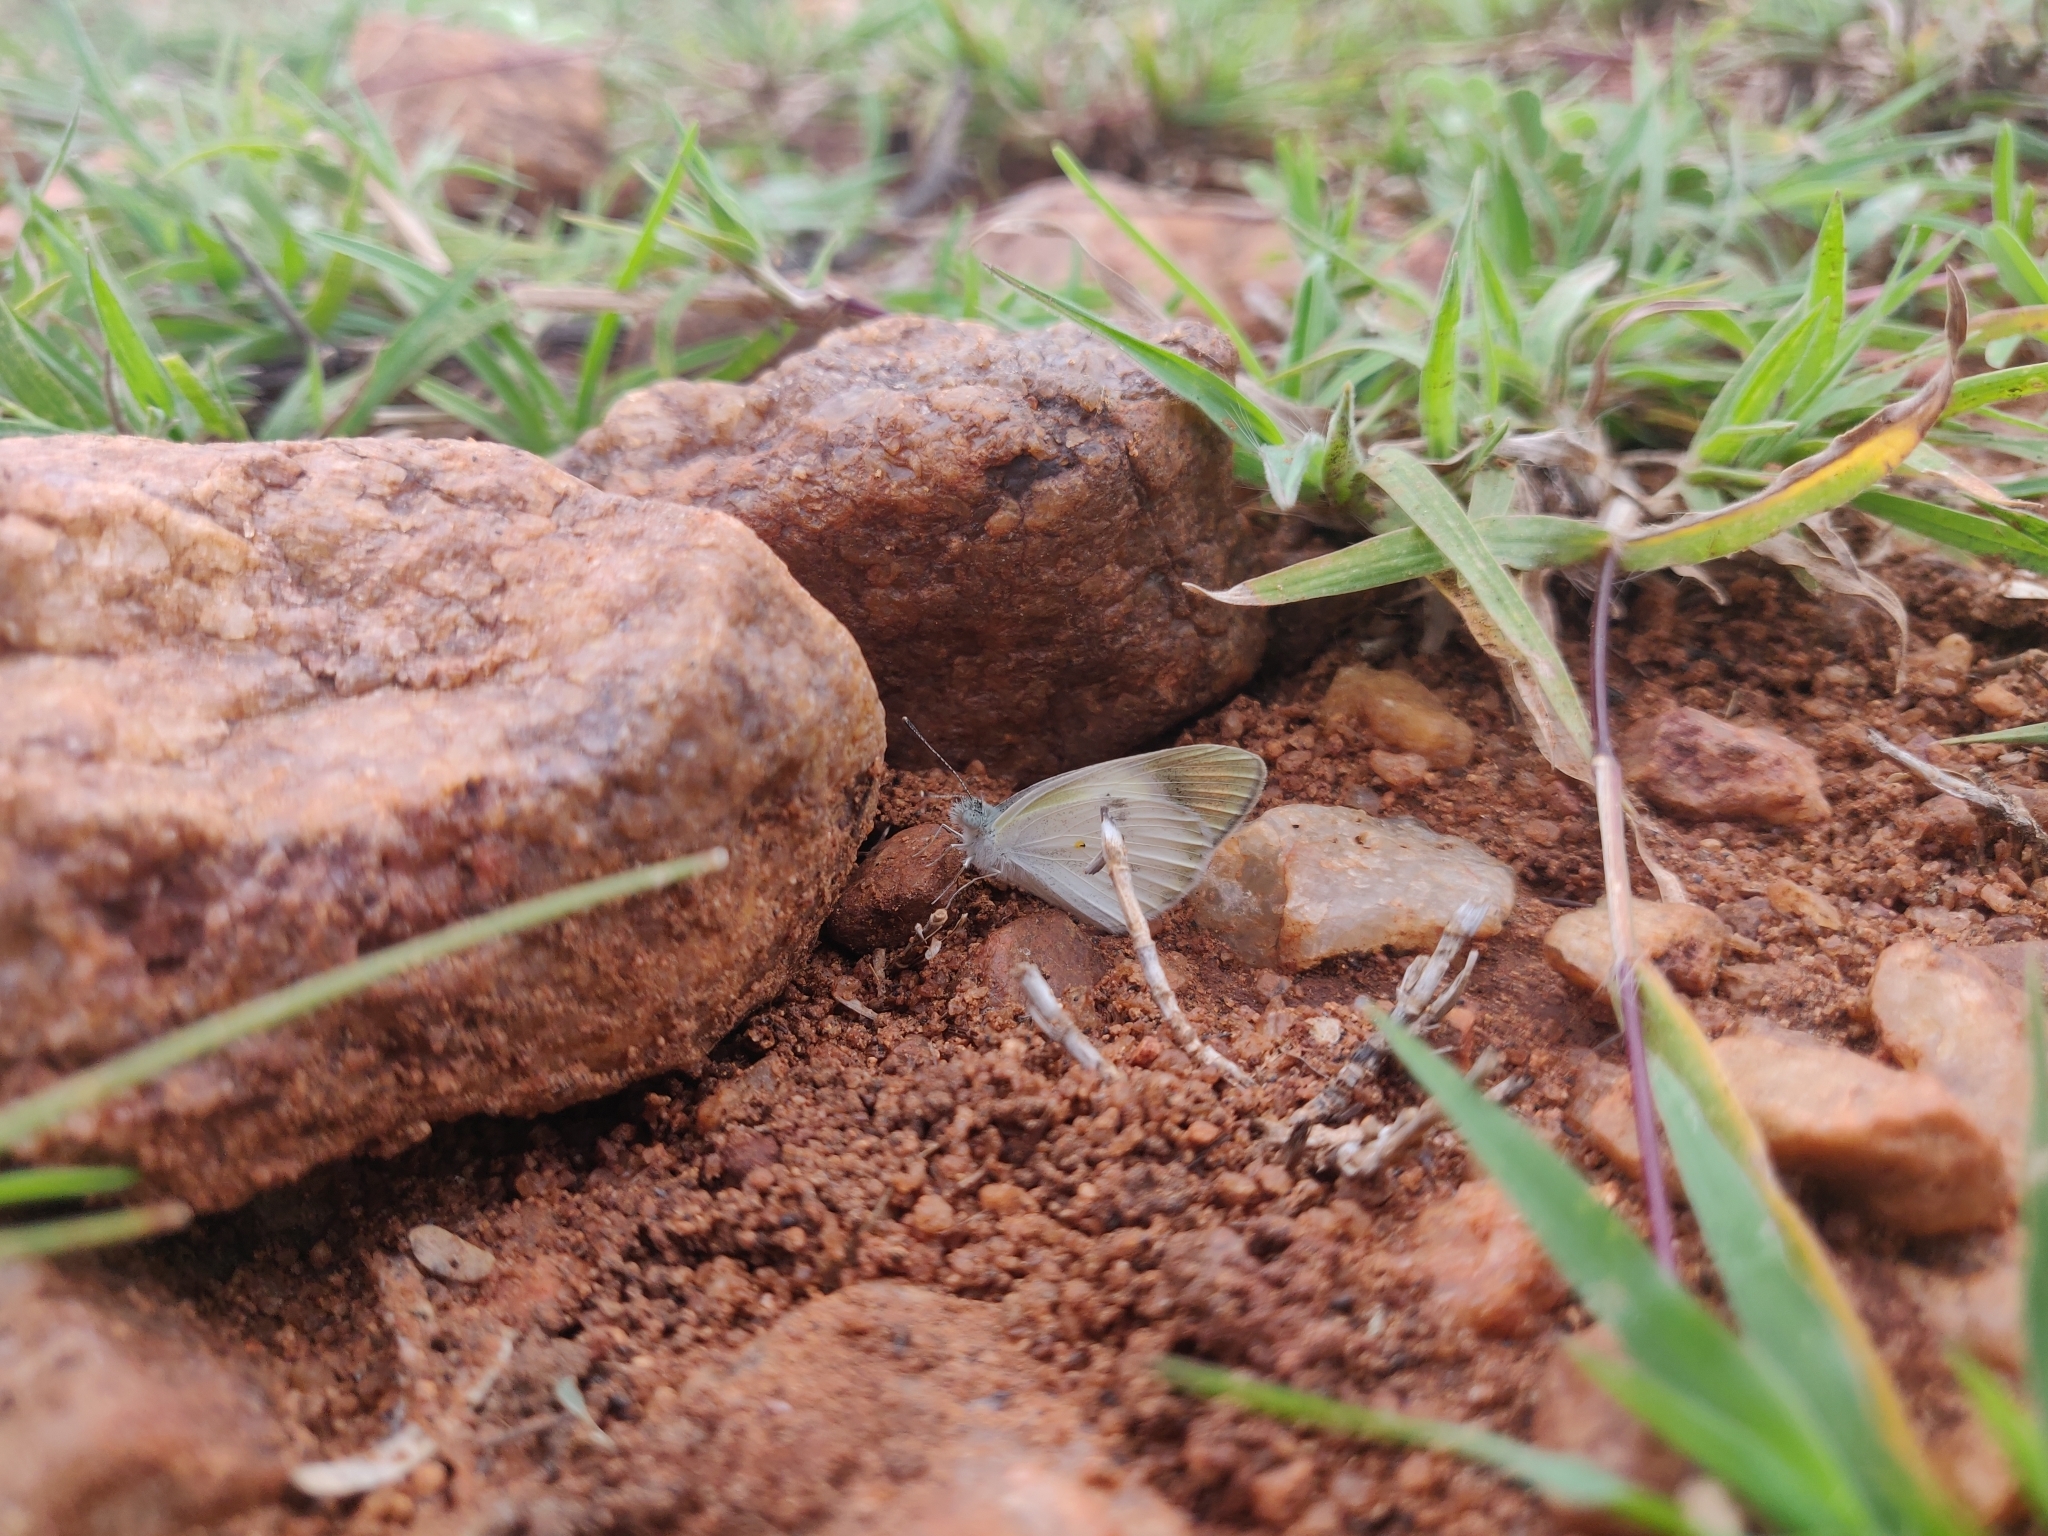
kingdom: Animalia
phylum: Arthropoda
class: Insecta
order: Lepidoptera
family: Pieridae
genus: Colotis
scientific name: Colotis etrida
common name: Little orange tip
